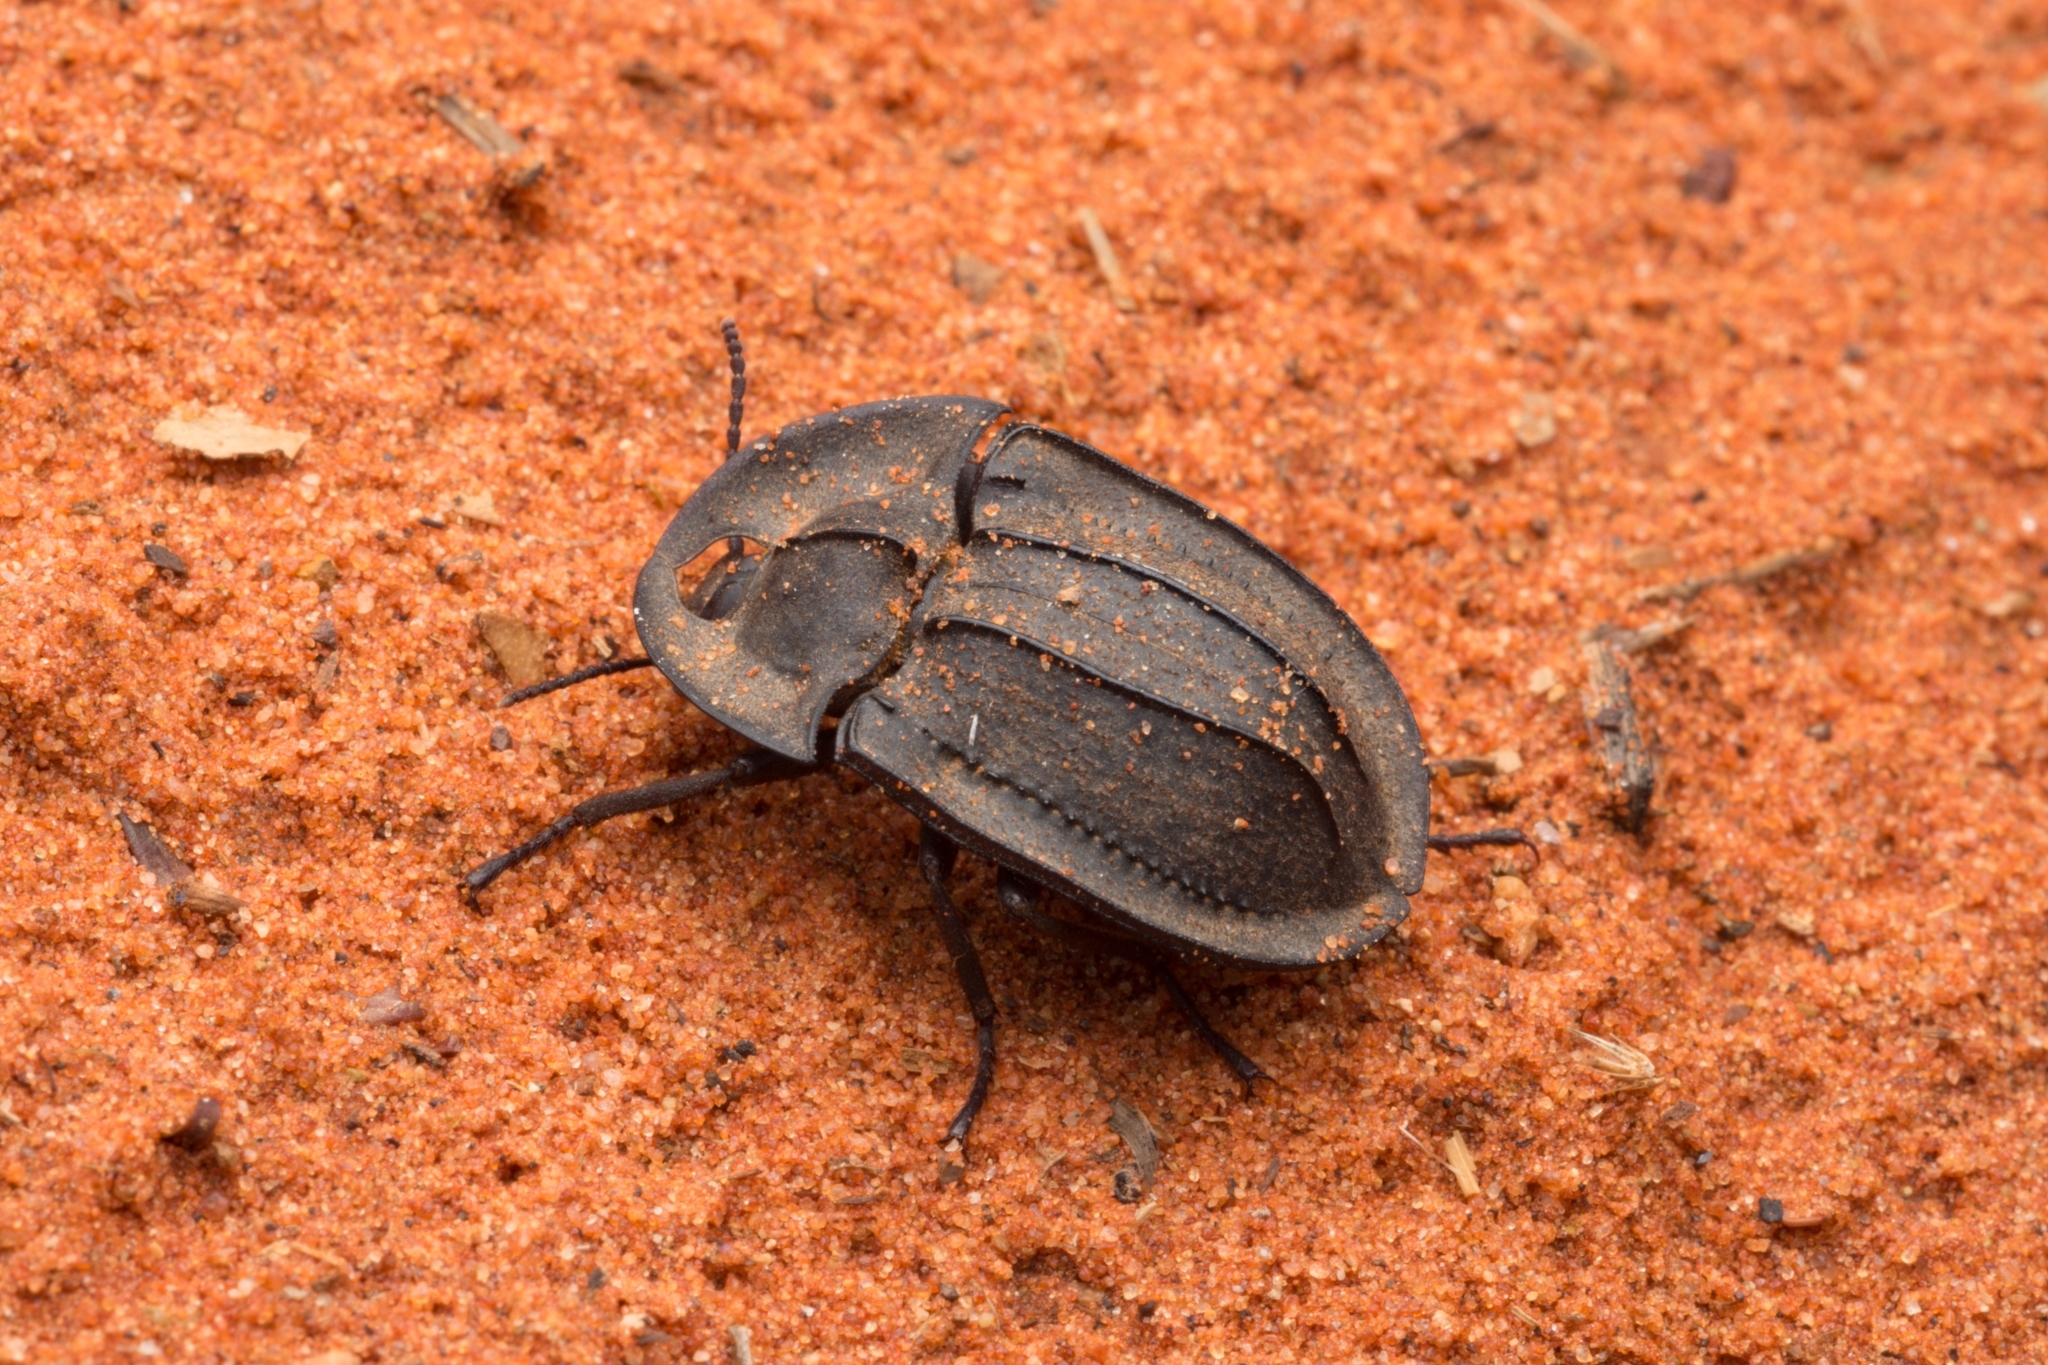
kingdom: Animalia
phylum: Arthropoda
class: Insecta
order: Coleoptera
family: Tenebrionidae
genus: Helea
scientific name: Helea
